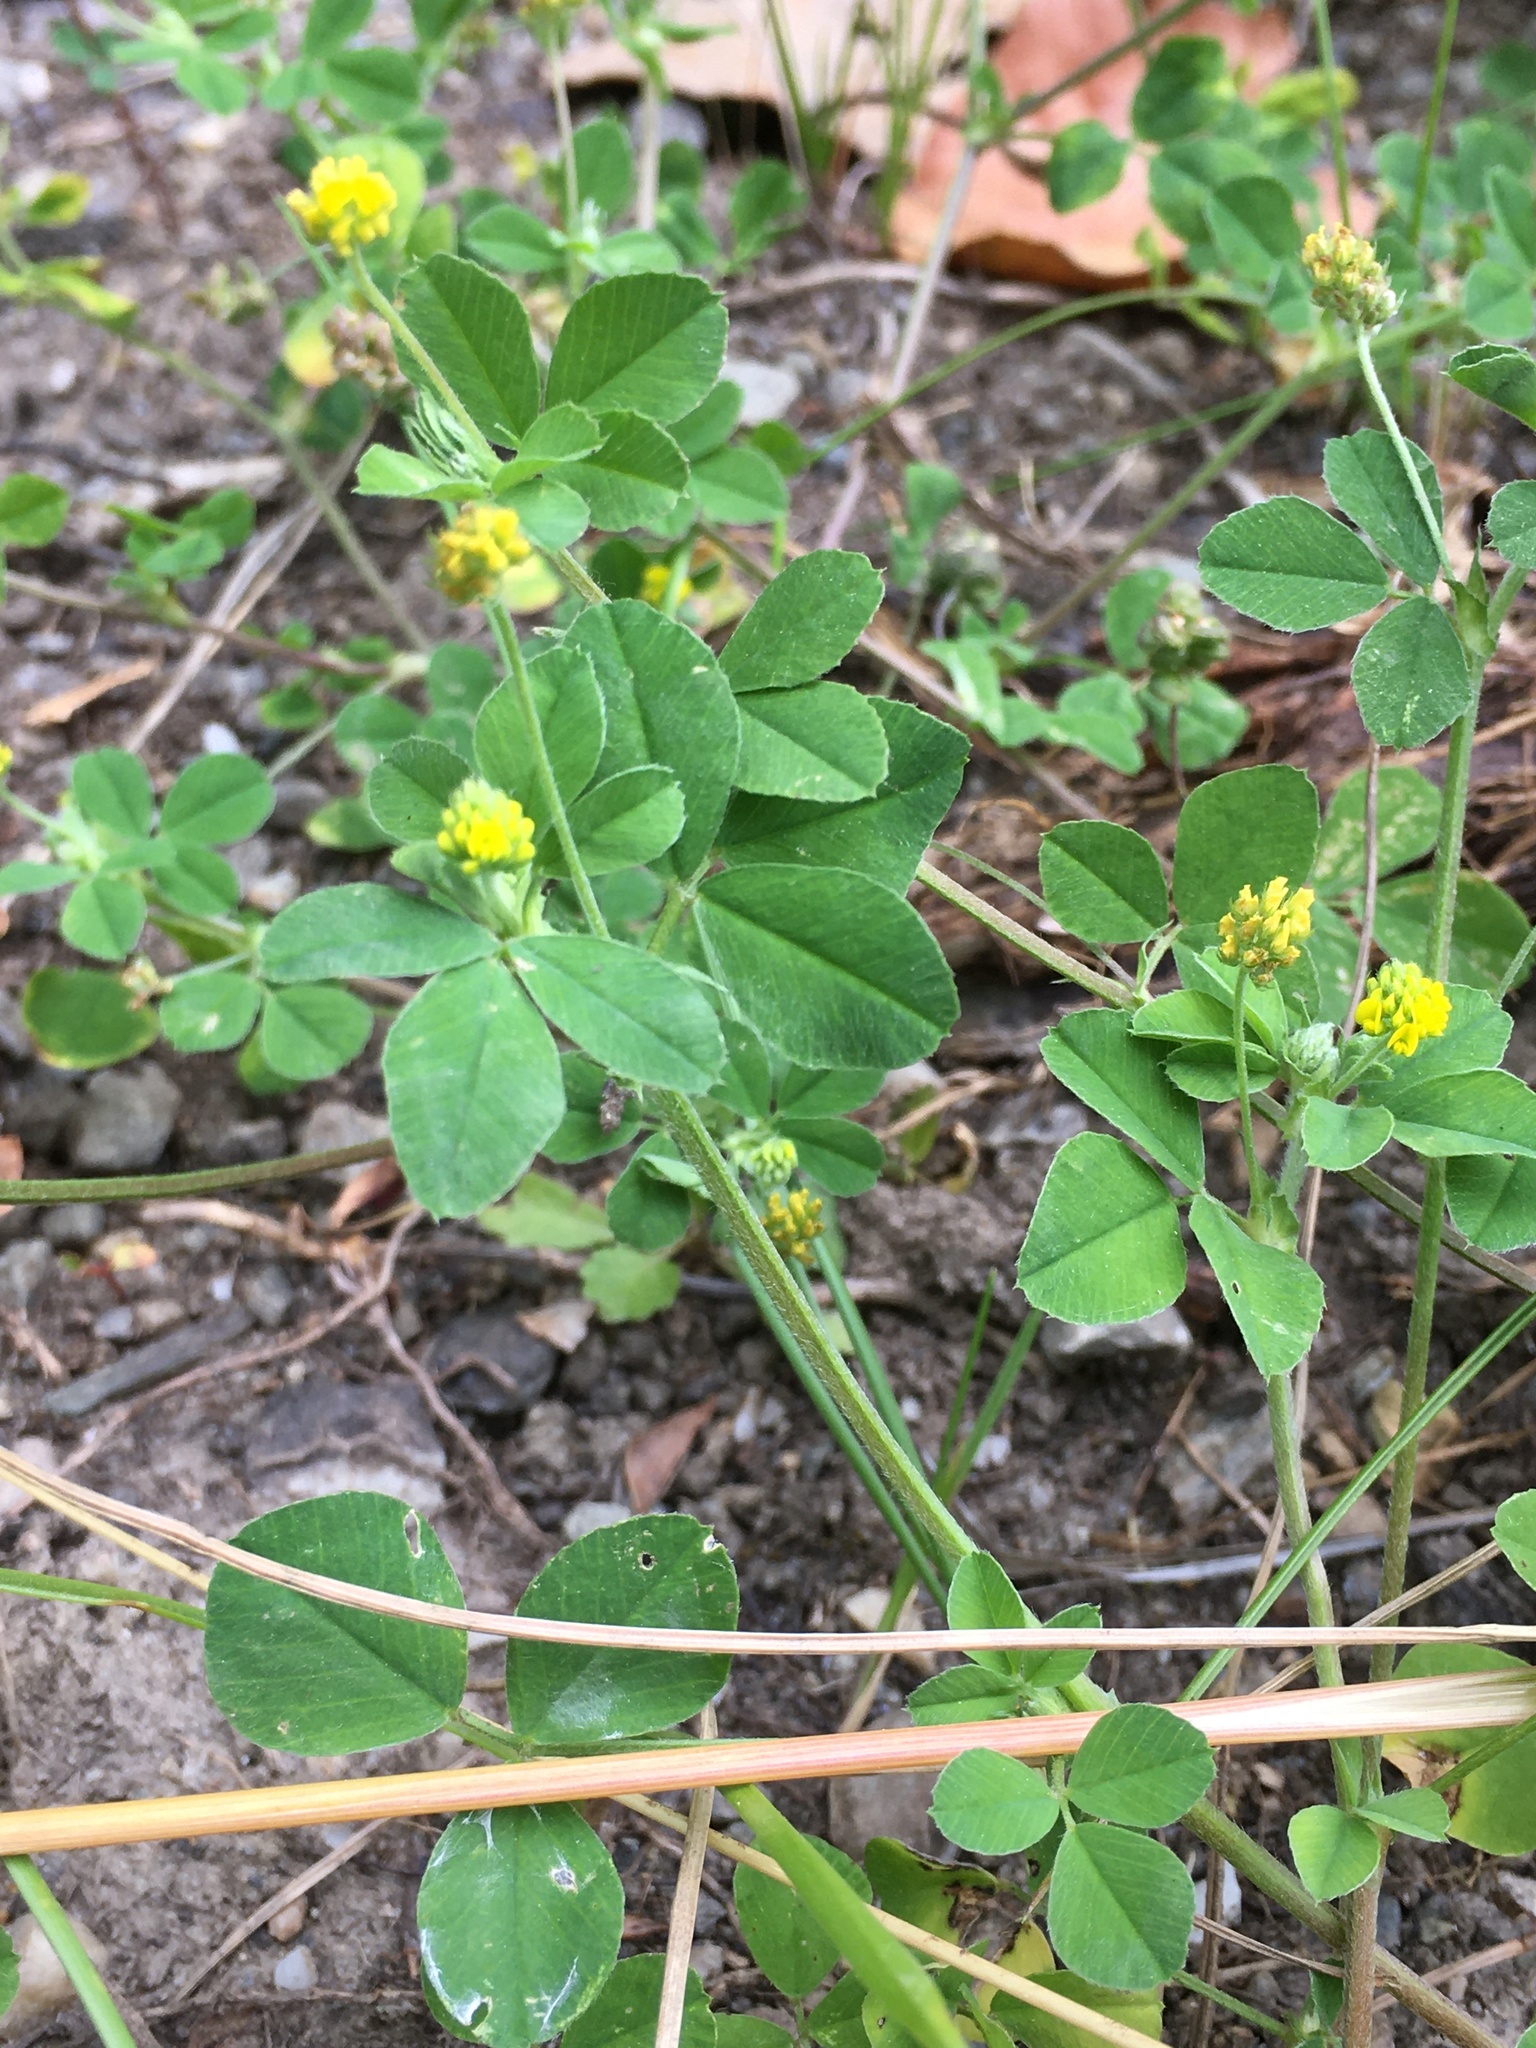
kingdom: Plantae
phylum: Tracheophyta
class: Magnoliopsida
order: Fabales
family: Fabaceae
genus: Medicago
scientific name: Medicago lupulina
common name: Black medick
